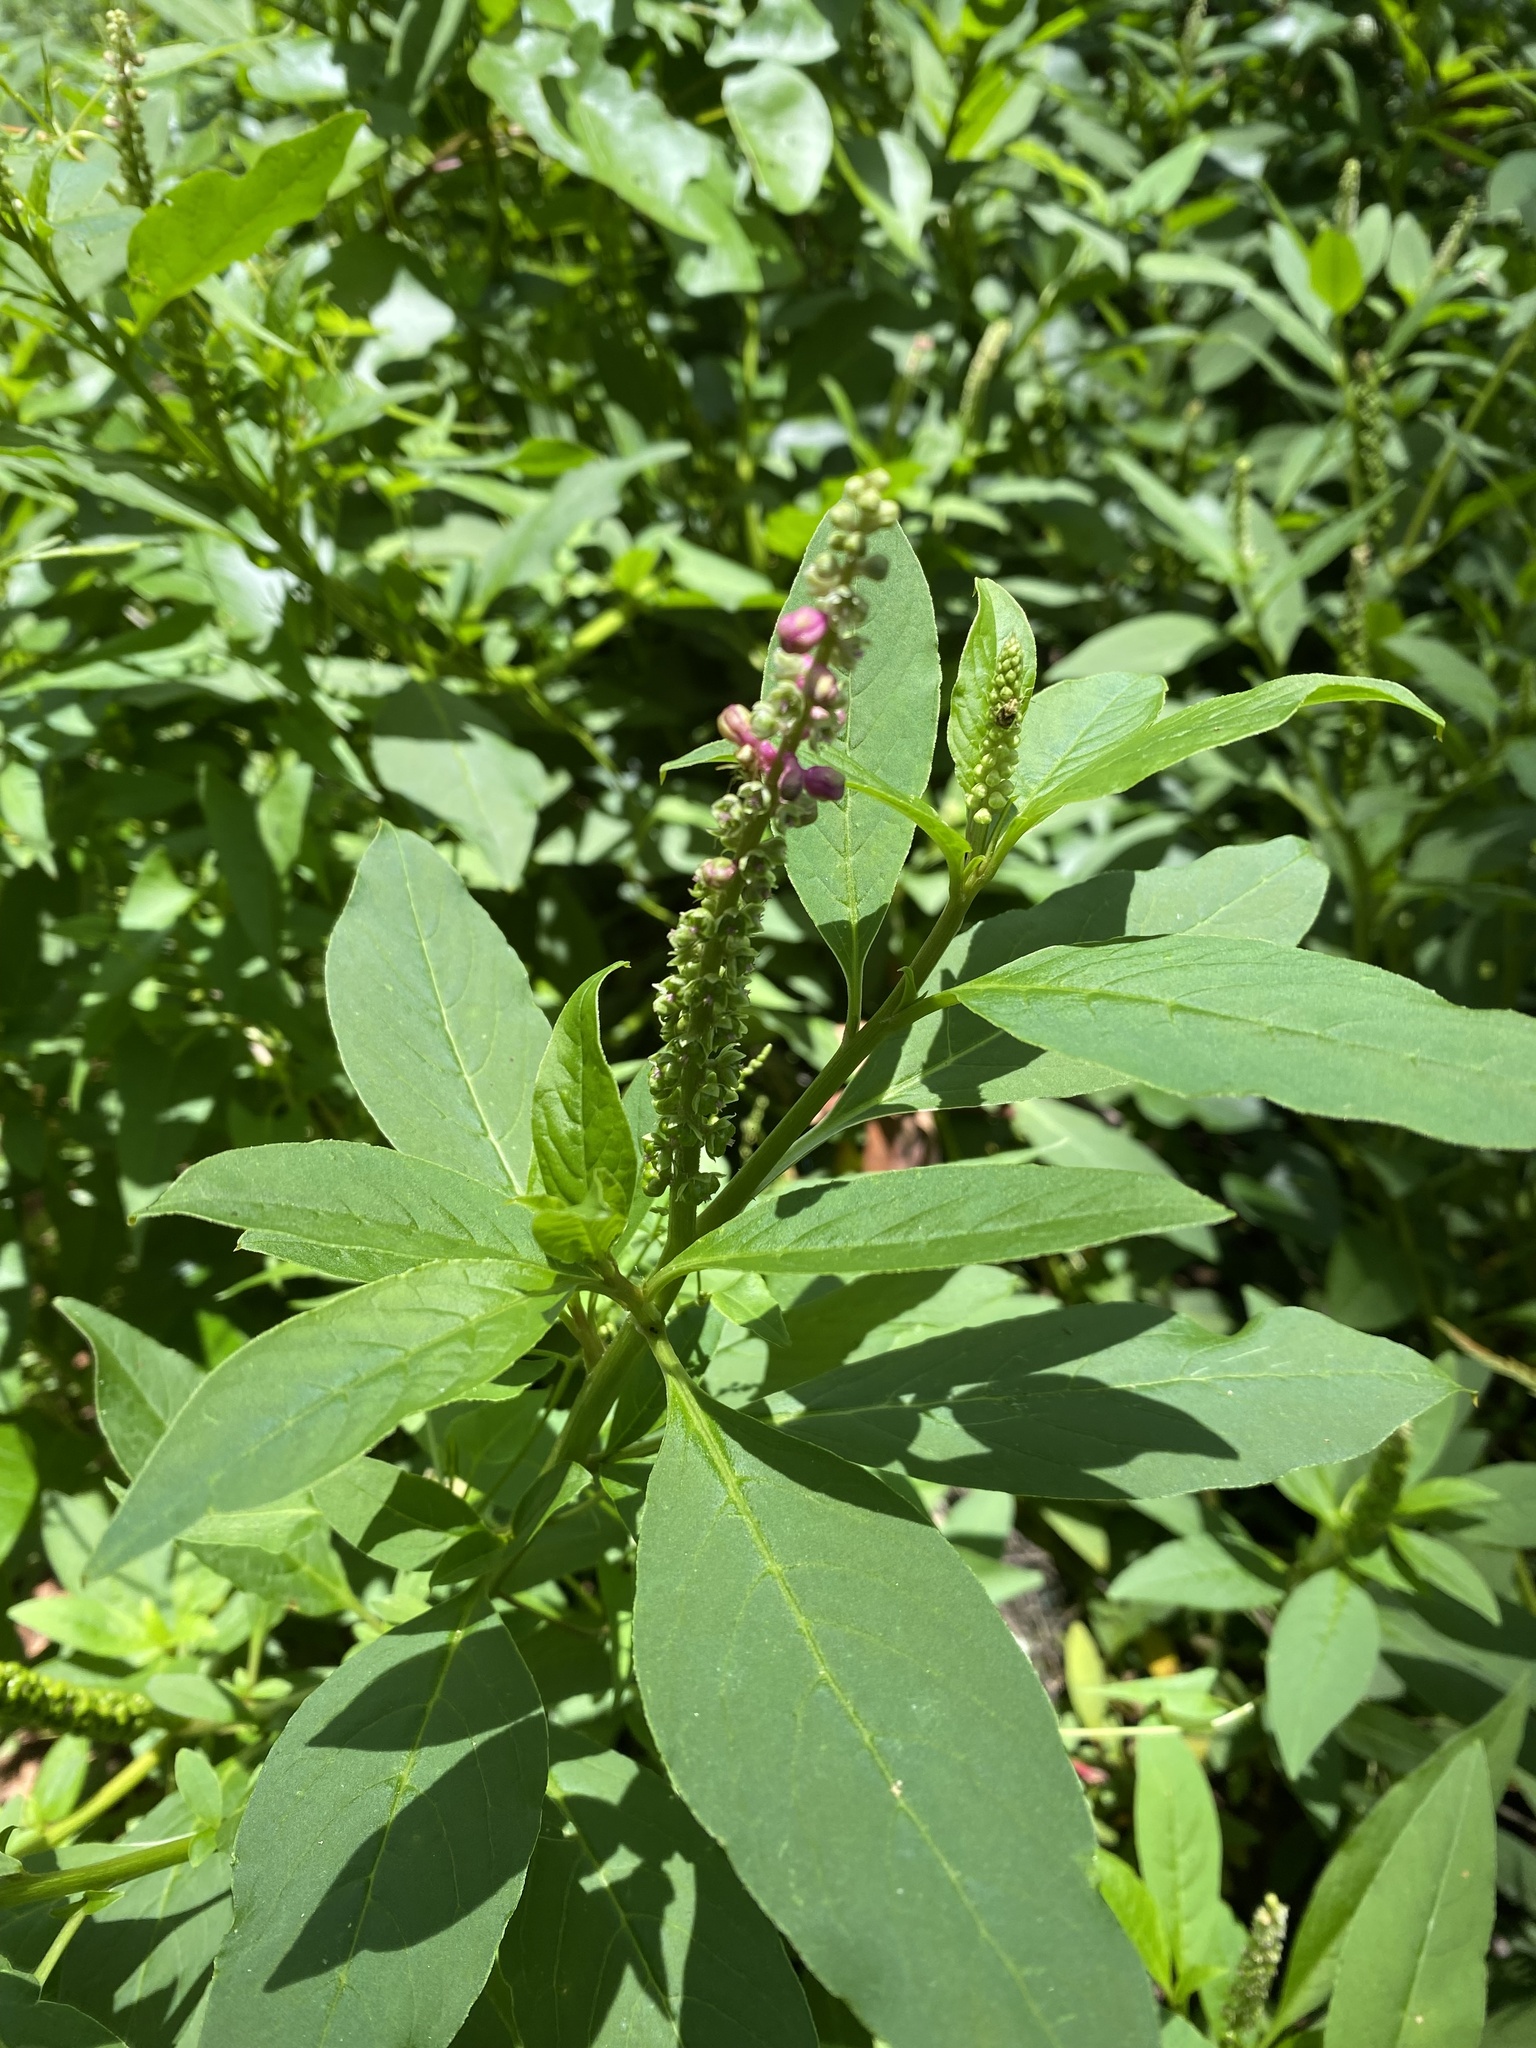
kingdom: Plantae
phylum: Tracheophyta
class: Magnoliopsida
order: Caryophyllales
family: Phytolaccaceae
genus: Phytolacca
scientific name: Phytolacca icosandra
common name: Button pokeweed
